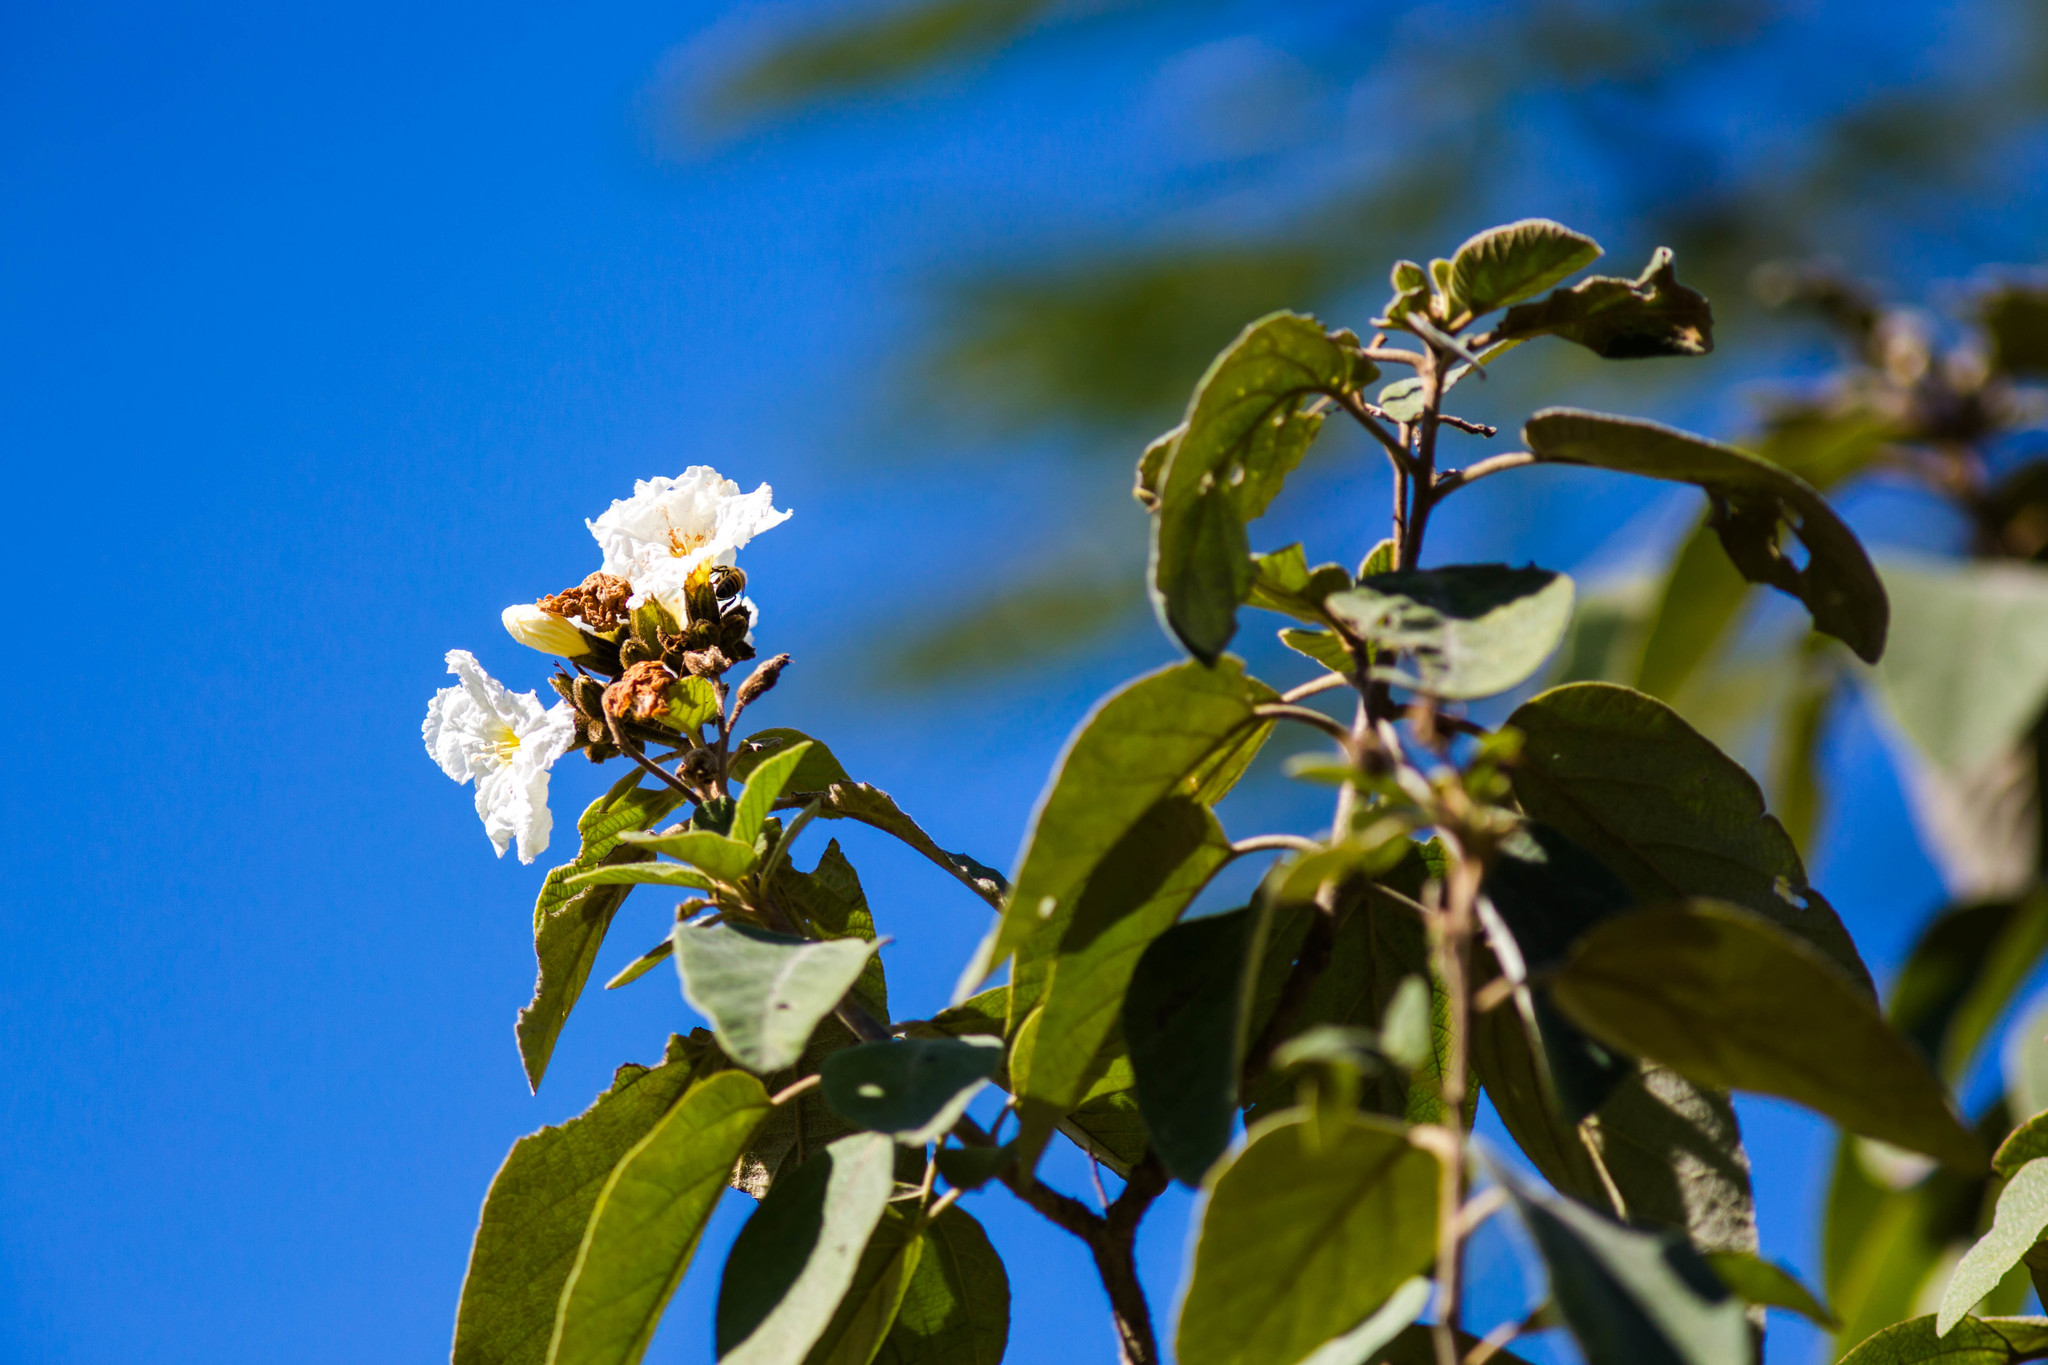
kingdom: Plantae
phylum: Tracheophyta
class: Magnoliopsida
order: Boraginales
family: Cordiaceae
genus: Cordia
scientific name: Cordia boissieri
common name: Mexican-olive
